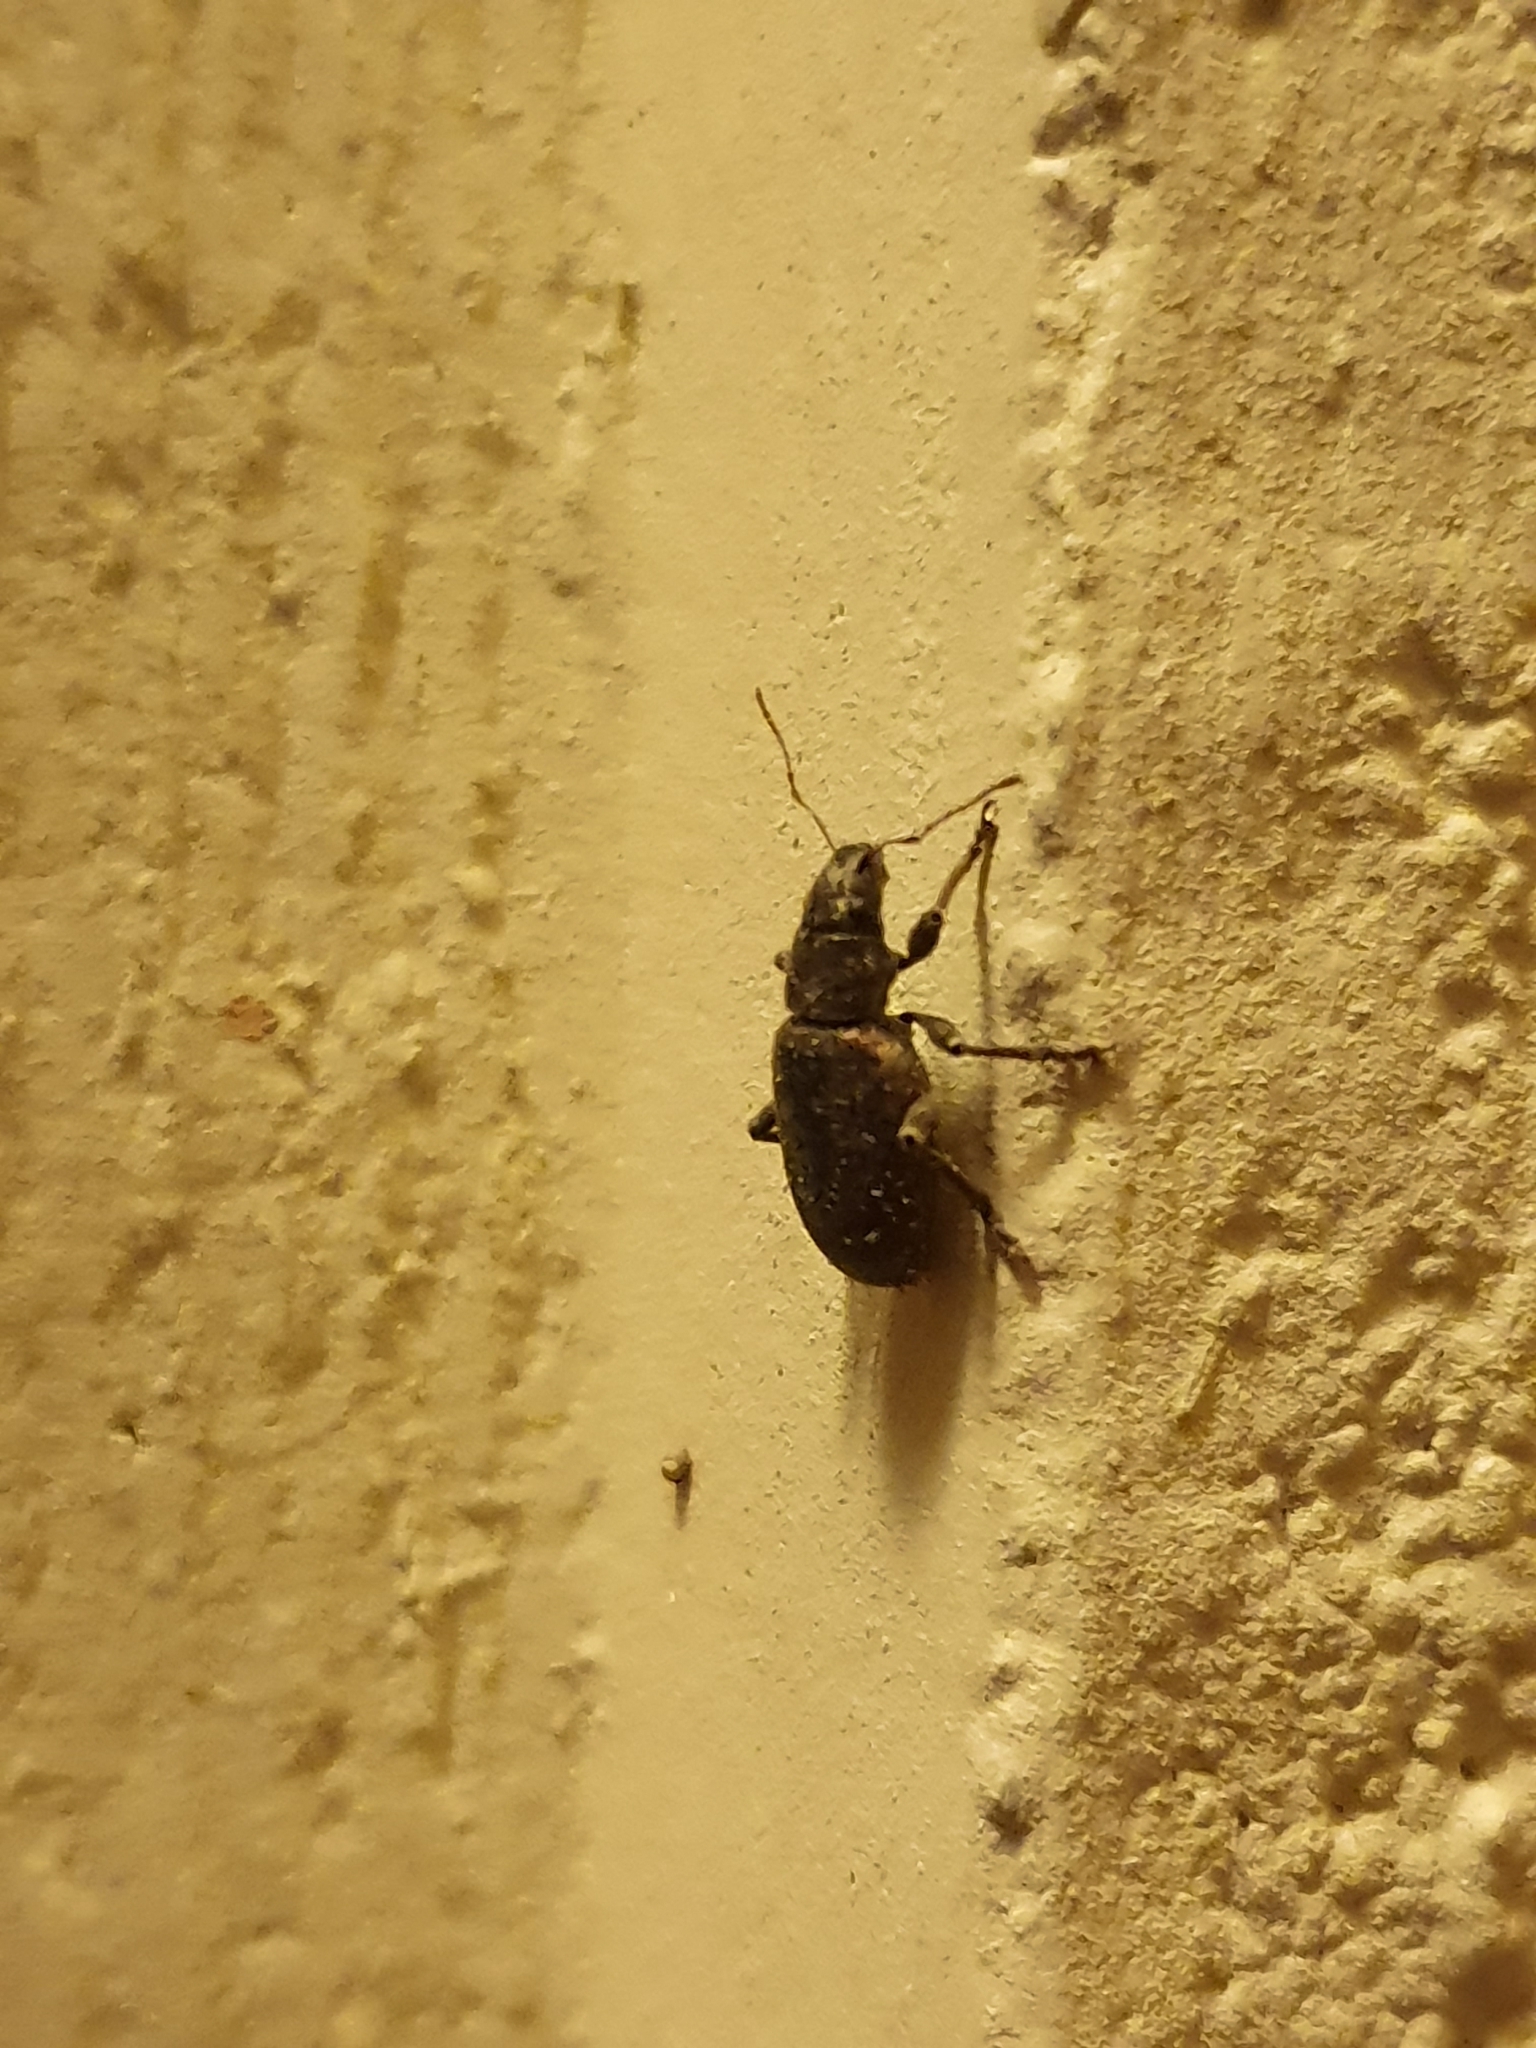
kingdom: Animalia
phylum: Arthropoda
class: Insecta
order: Coleoptera
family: Curculionidae
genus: Brachyderes
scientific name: Brachyderes incanus
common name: Weevil
